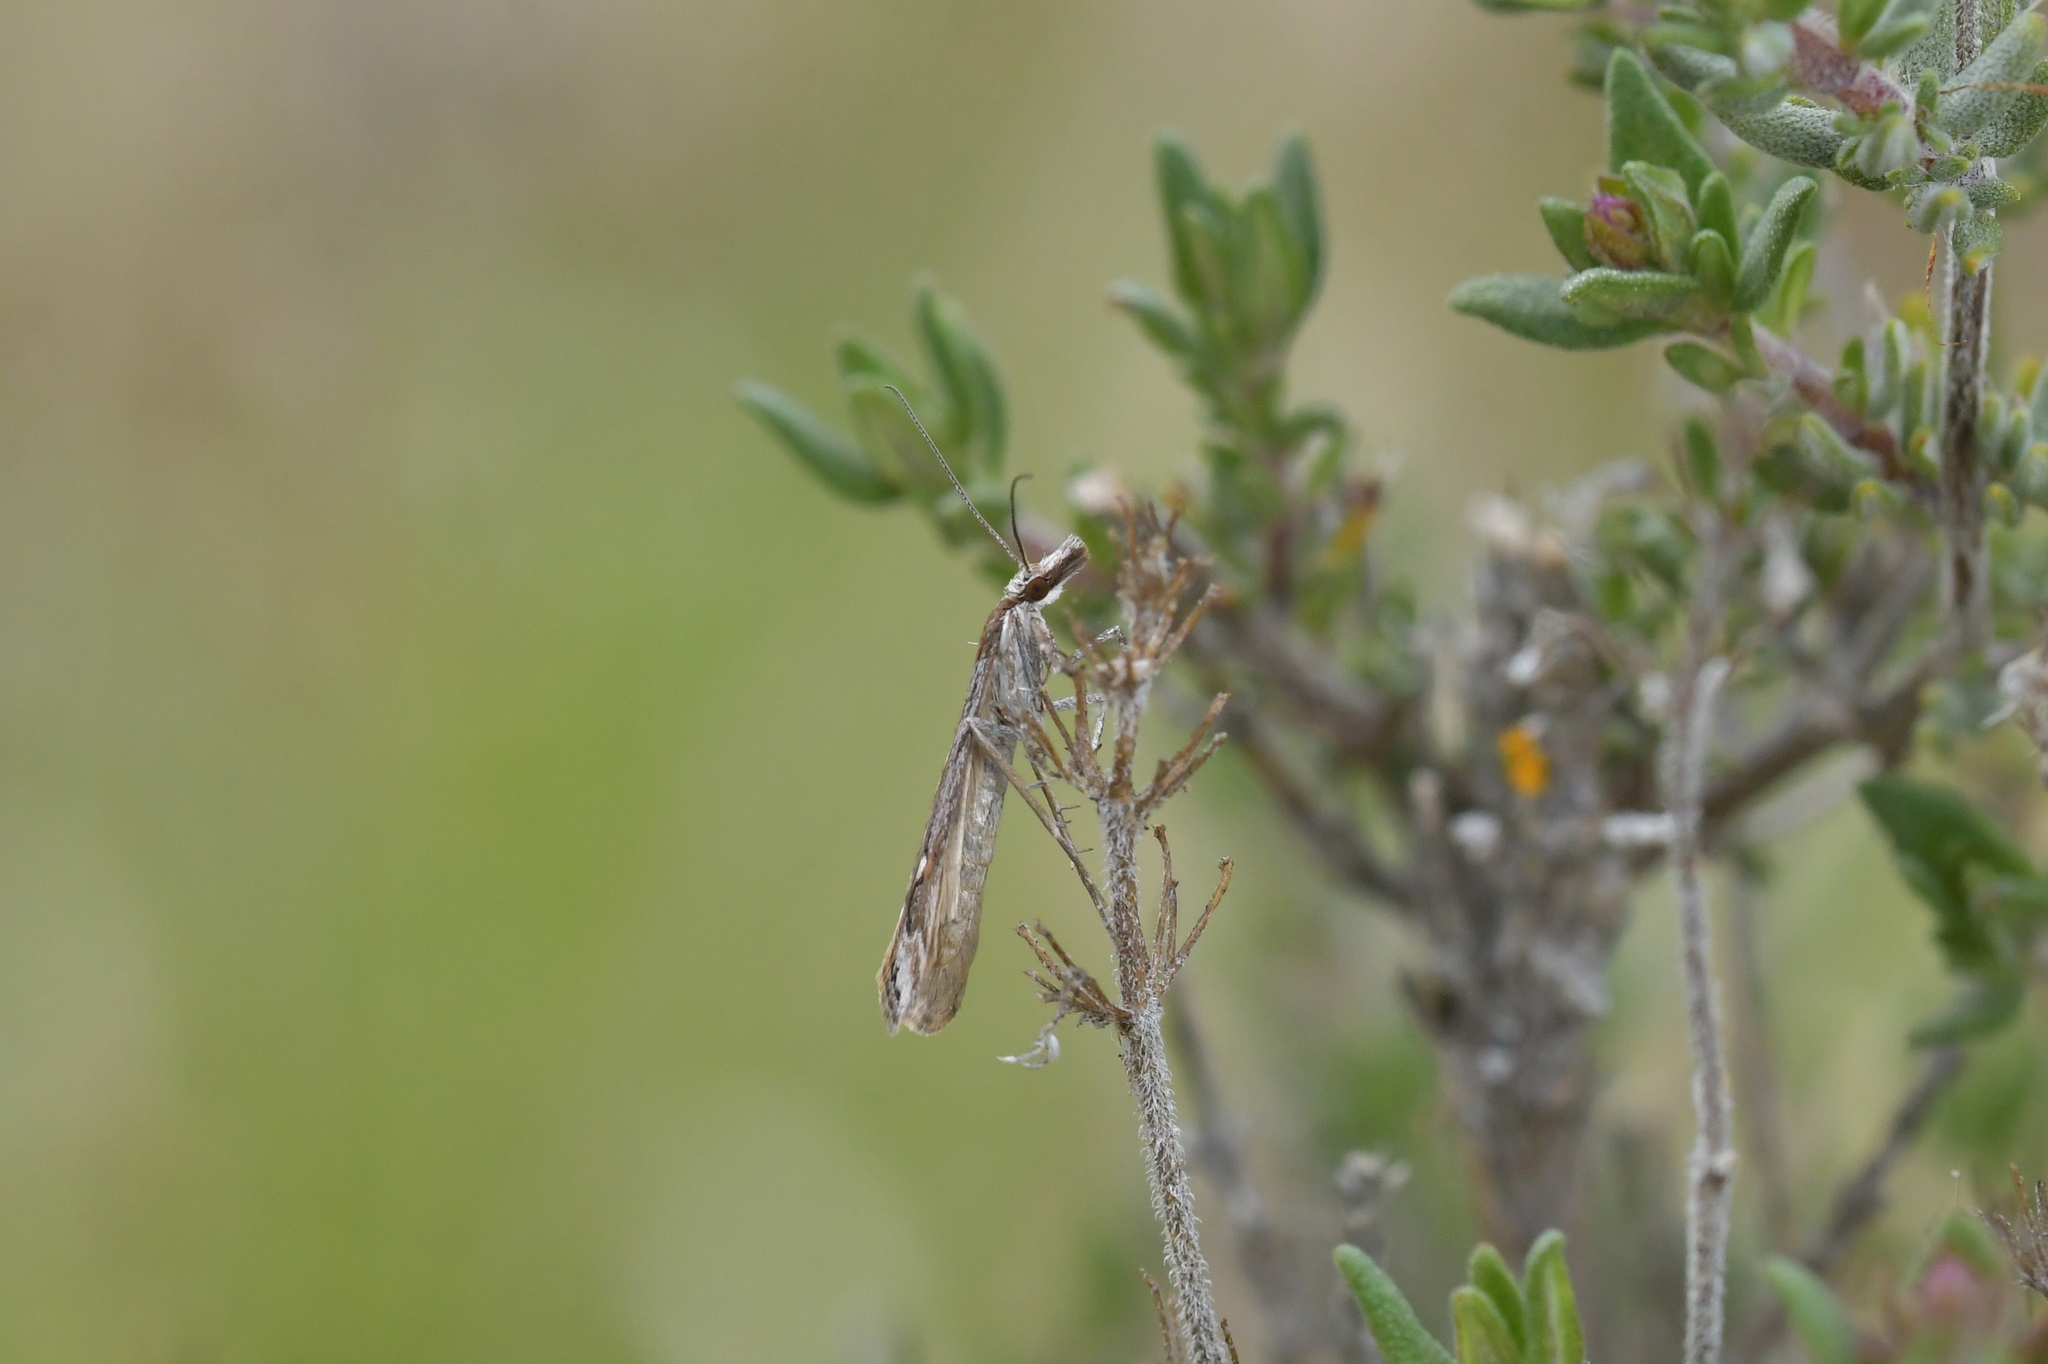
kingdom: Animalia
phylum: Arthropoda
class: Insecta
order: Lepidoptera
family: Crambidae
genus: Scoparia
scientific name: Scoparia exilis
